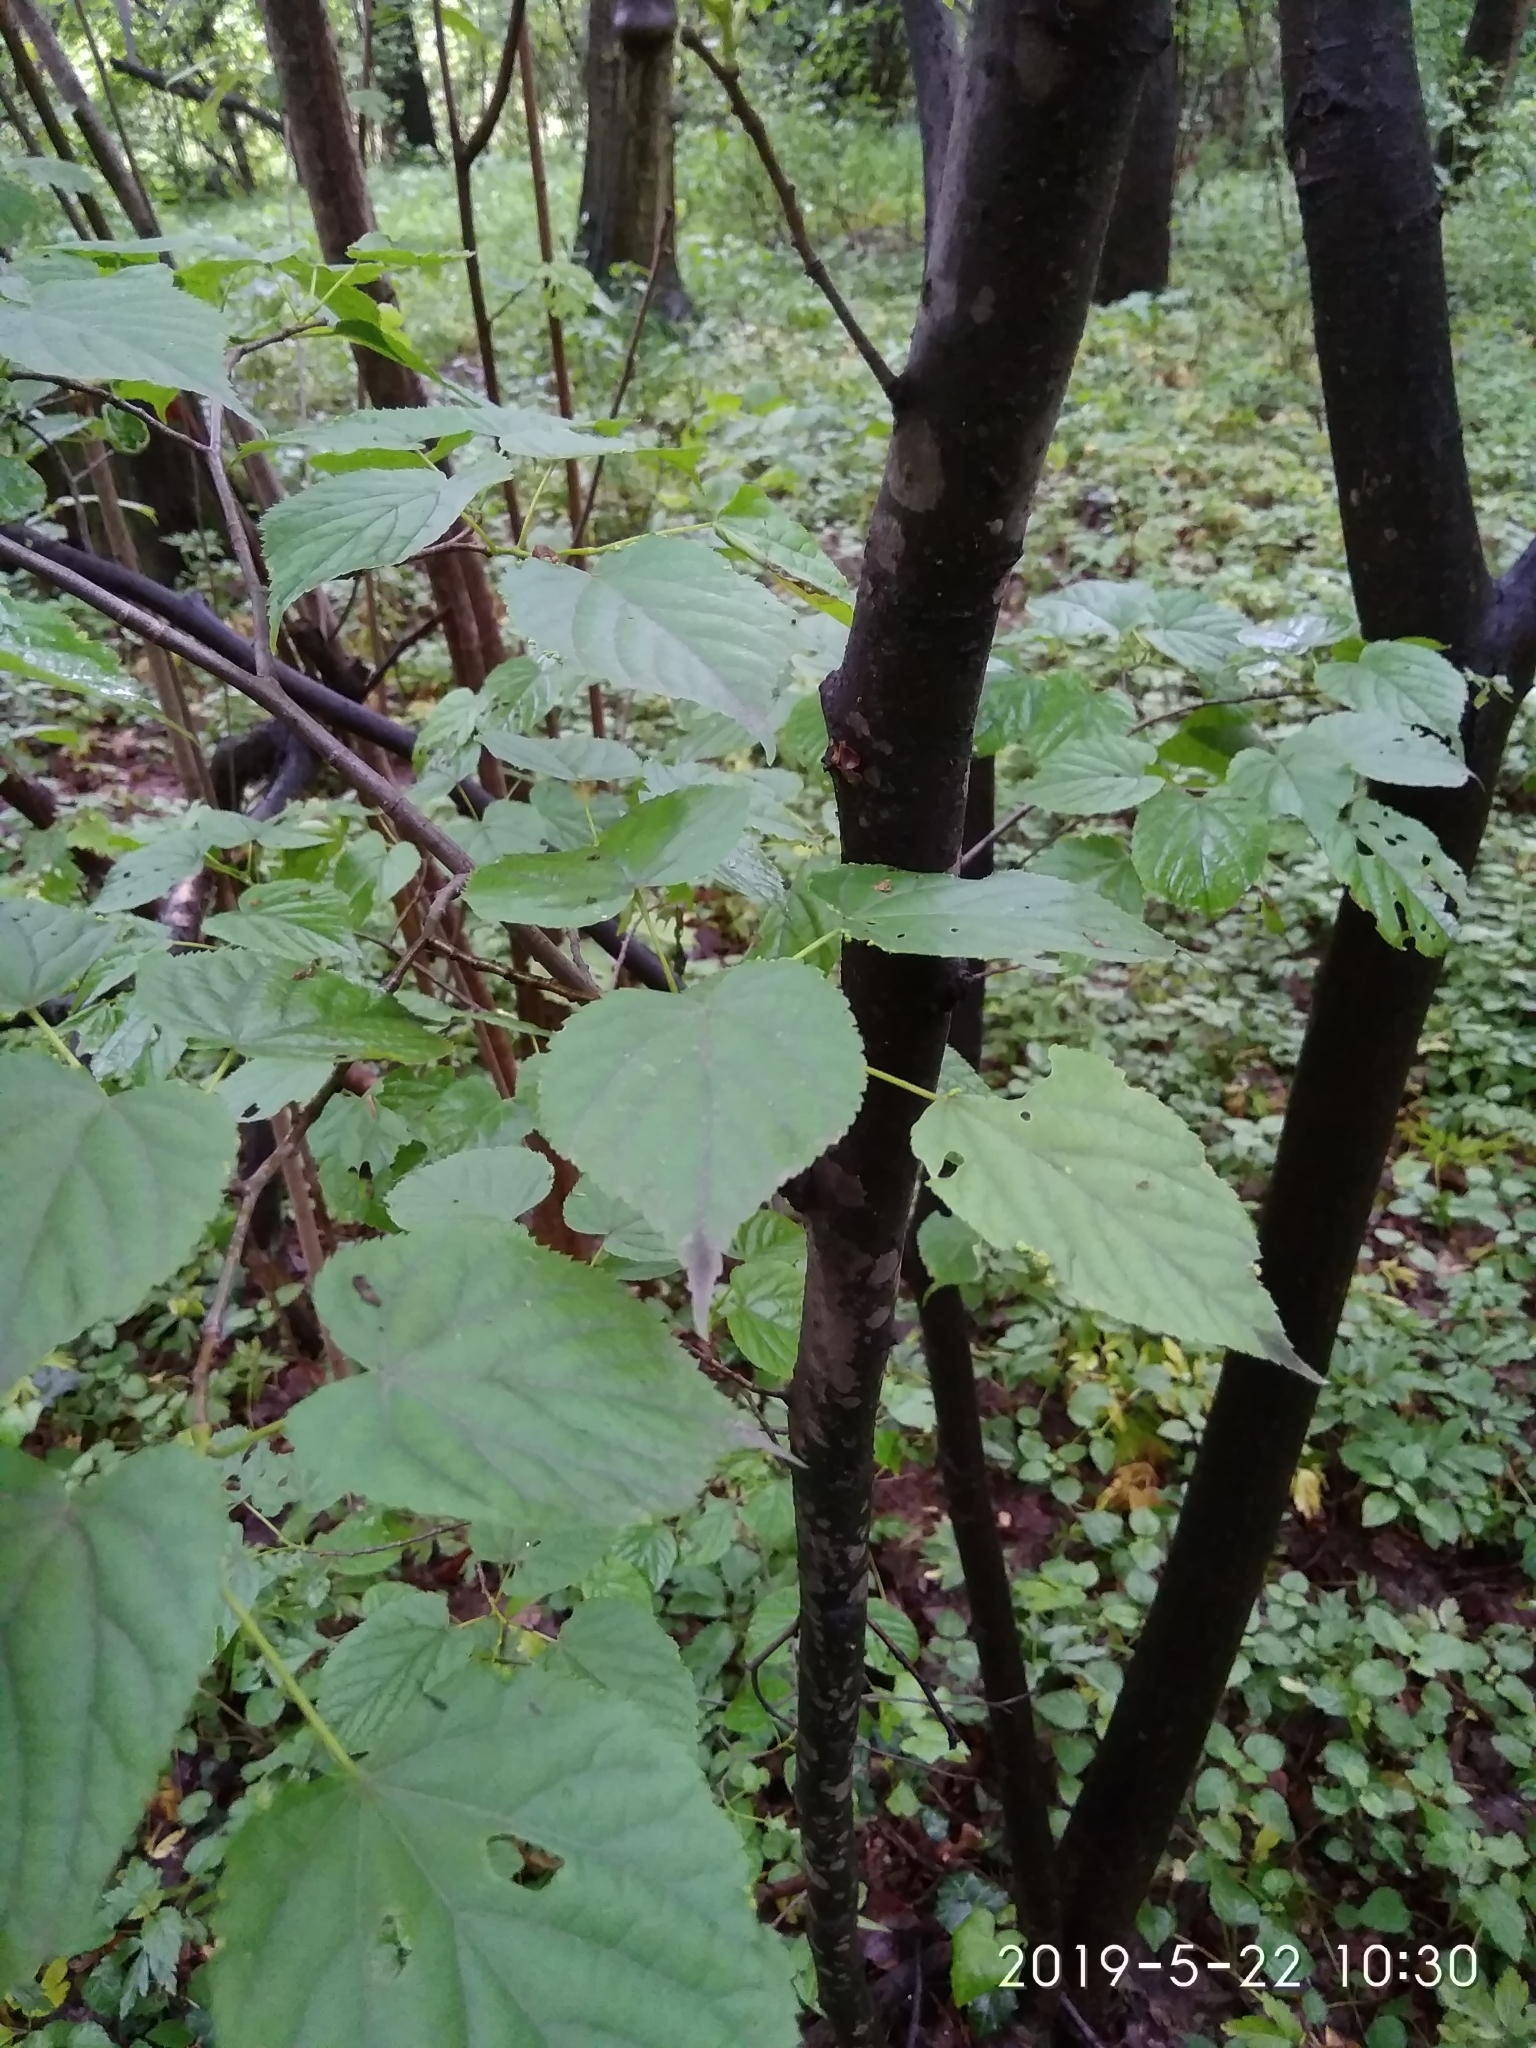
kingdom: Plantae
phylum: Tracheophyta
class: Magnoliopsida
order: Malvales
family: Malvaceae
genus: Tilia
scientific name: Tilia cordata
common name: Small-leaved lime
